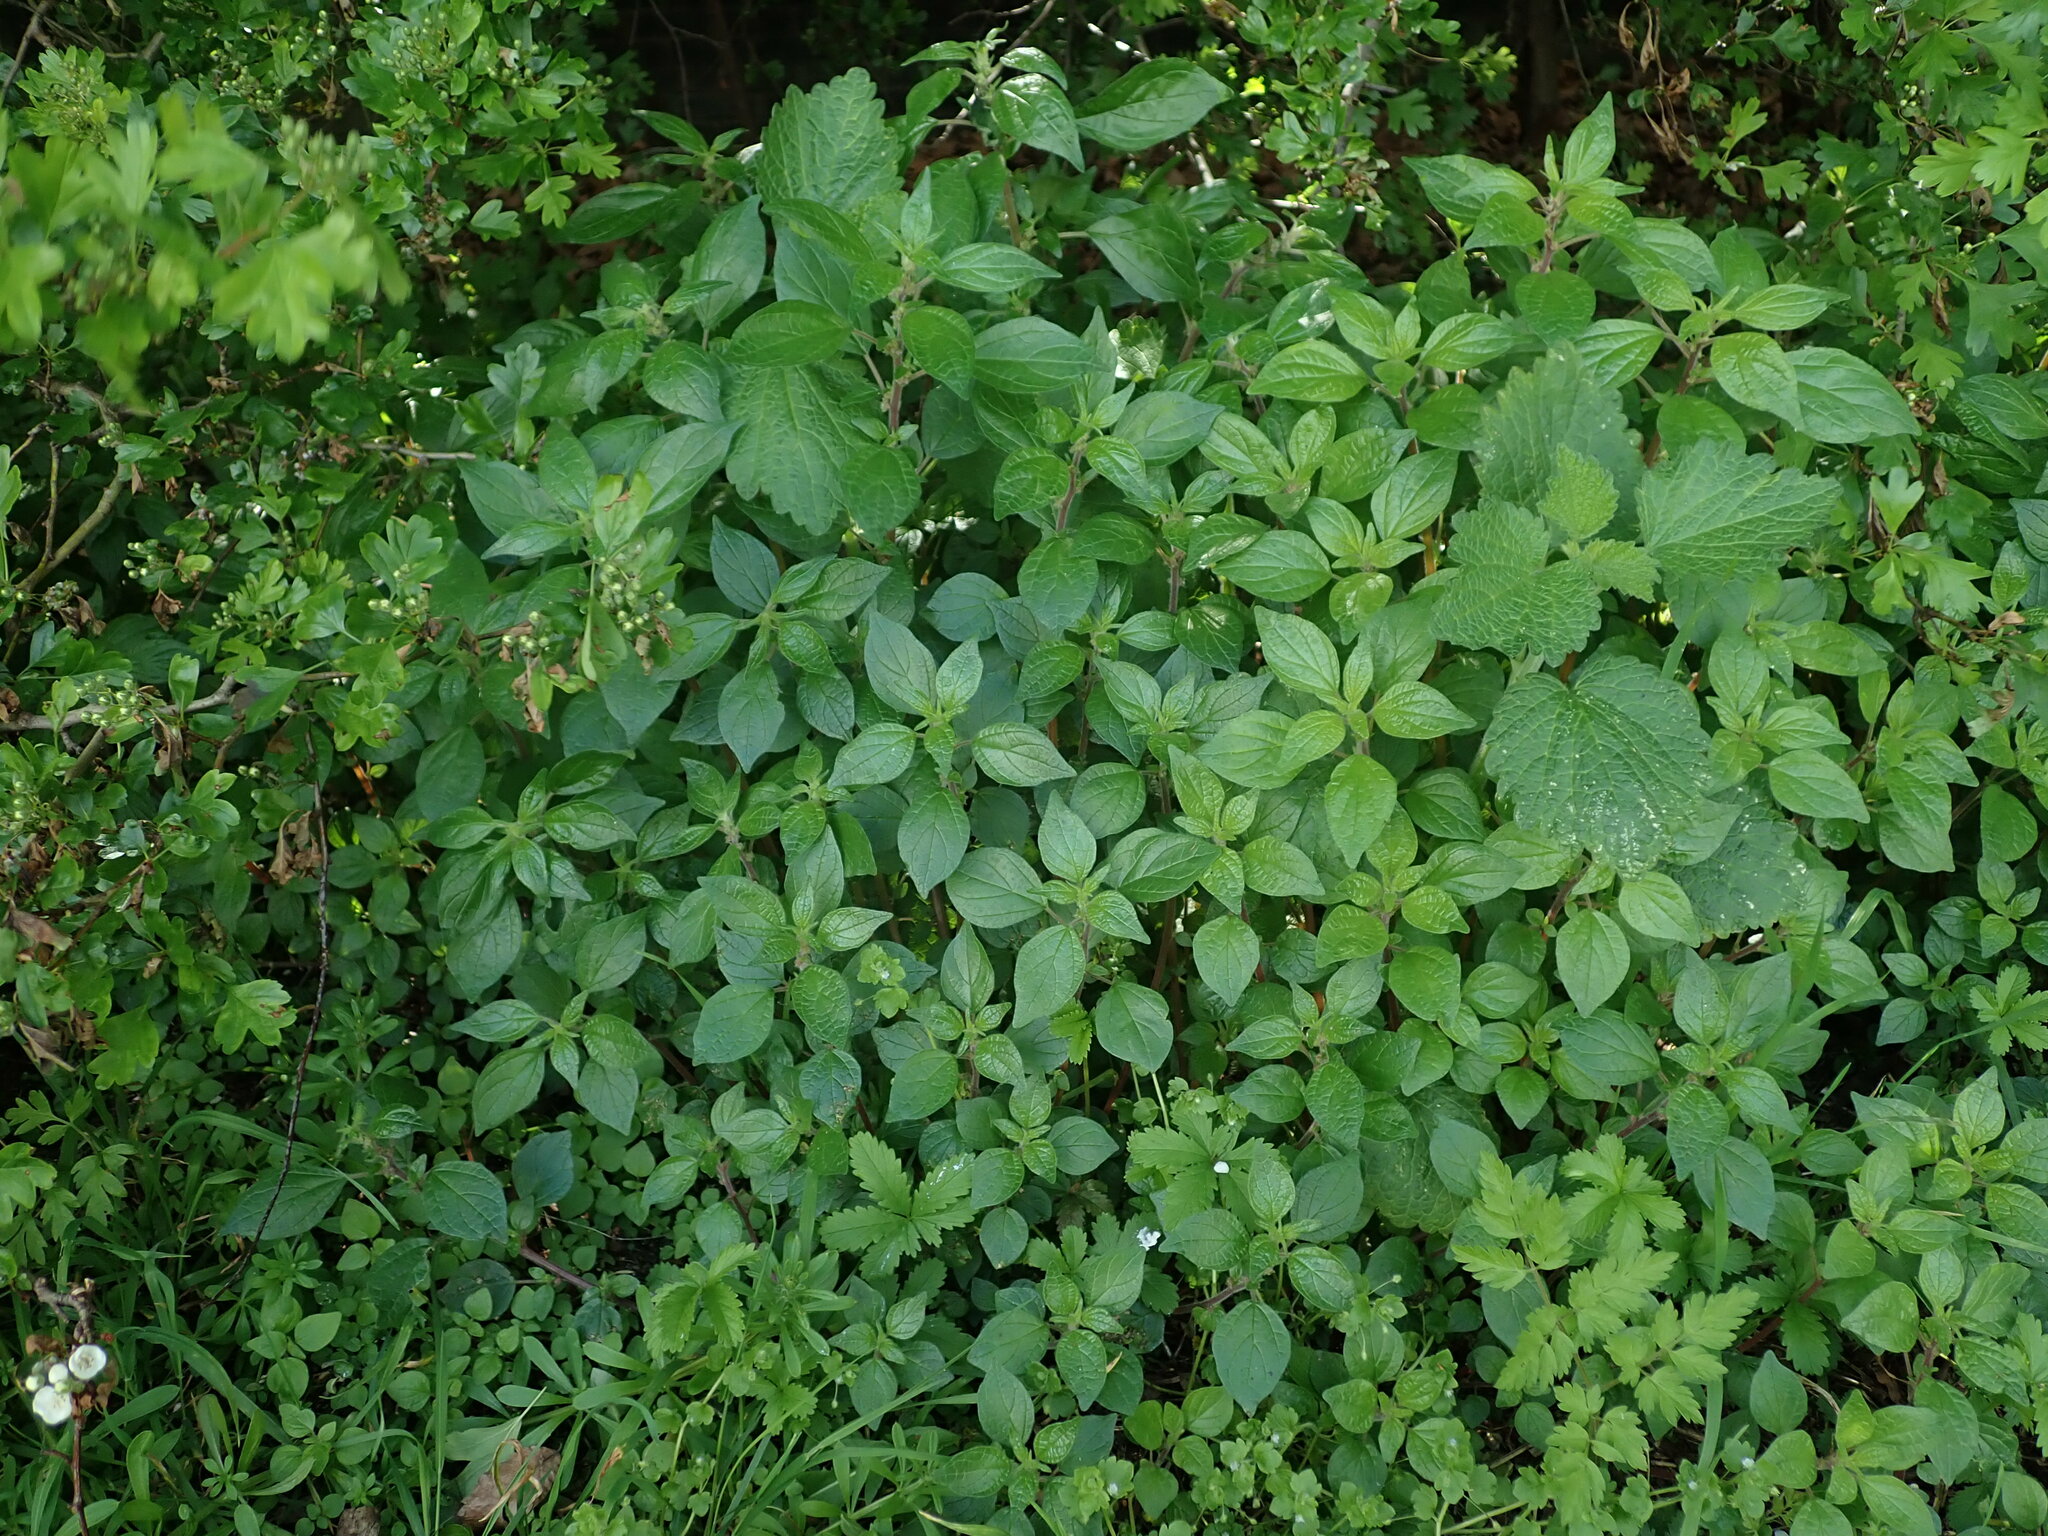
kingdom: Plantae
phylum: Tracheophyta
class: Magnoliopsida
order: Rosales
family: Urticaceae
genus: Parietaria
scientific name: Parietaria judaica
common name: Pellitory-of-the-wall
